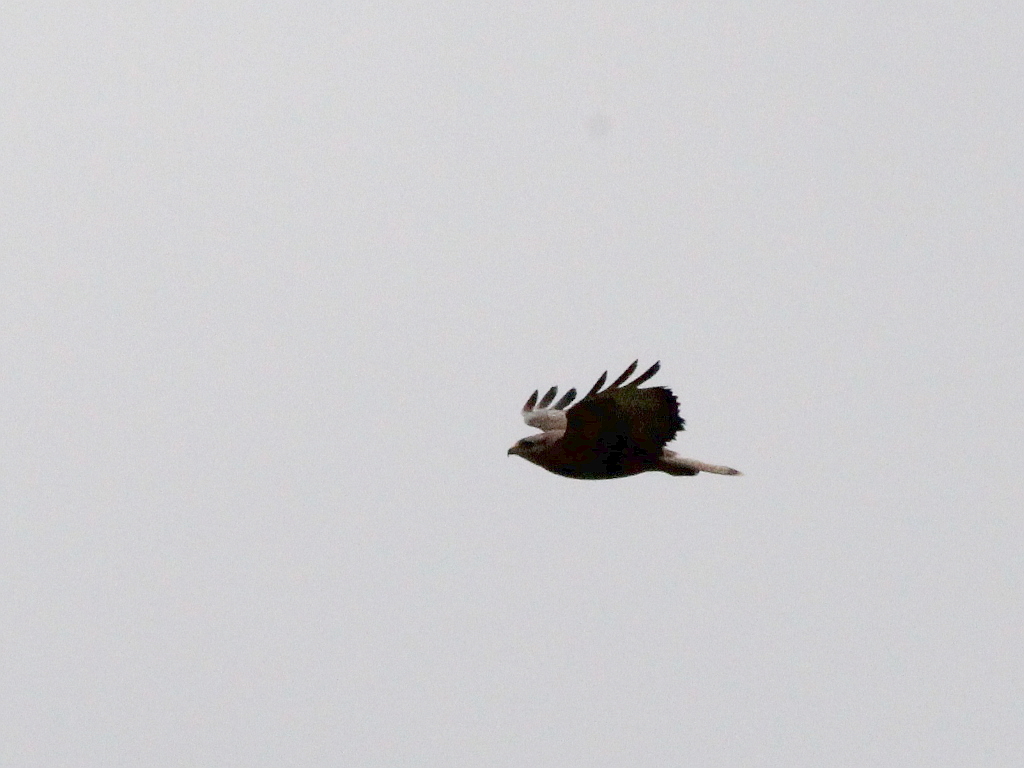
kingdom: Animalia
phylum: Chordata
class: Aves
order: Accipitriformes
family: Accipitridae
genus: Buteo
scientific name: Buteo buteo
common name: Common buzzard
